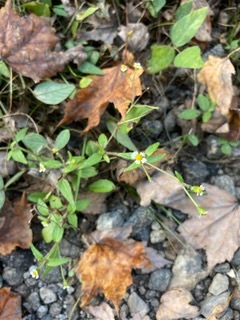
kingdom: Plantae
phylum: Tracheophyta
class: Magnoliopsida
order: Asterales
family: Asteraceae
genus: Galinsoga
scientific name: Galinsoga quadriradiata
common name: Shaggy soldier
